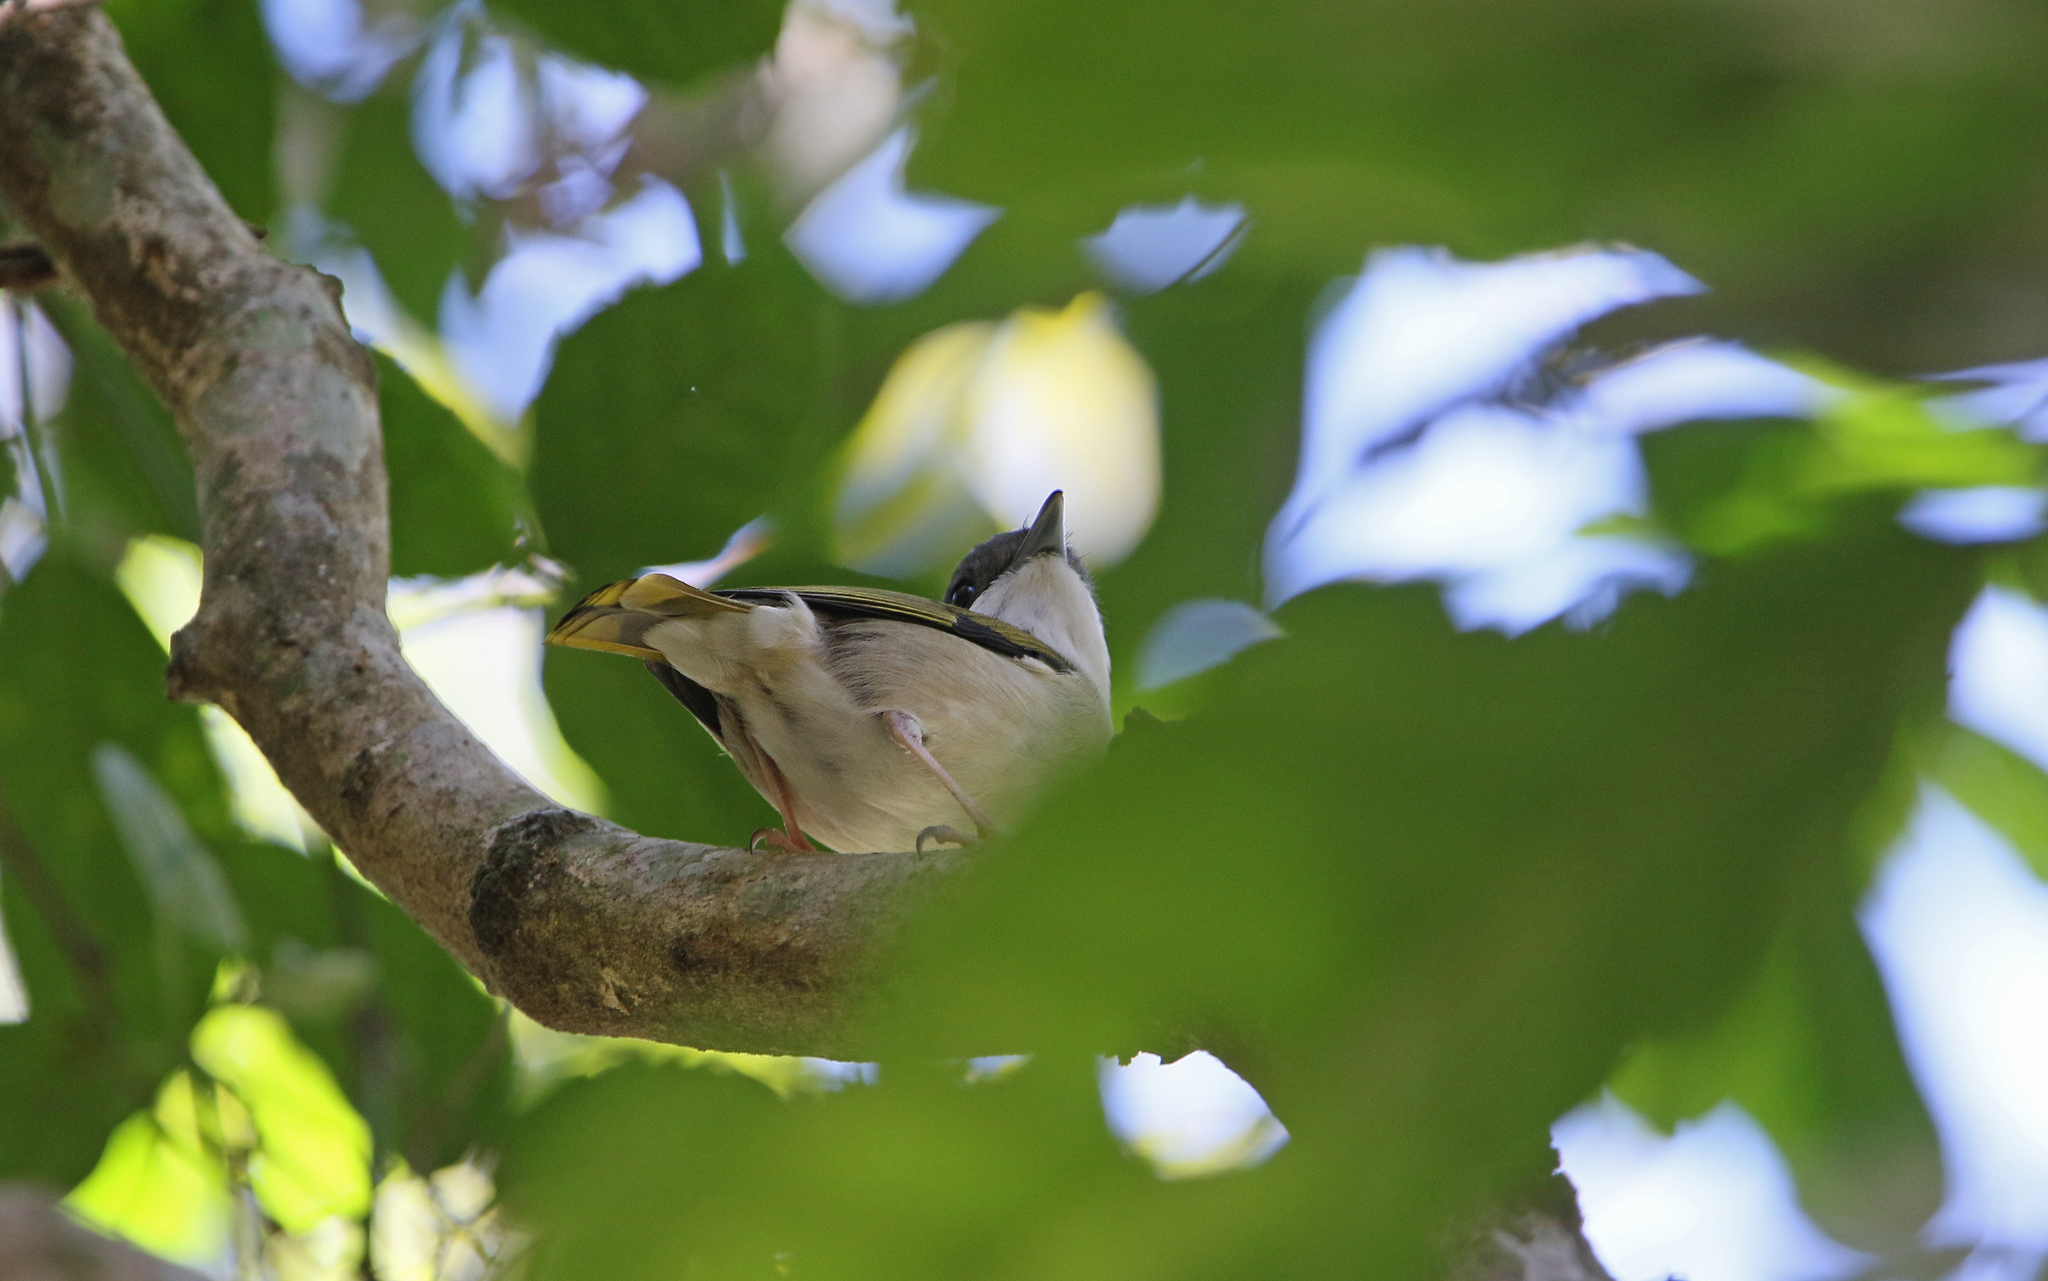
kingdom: Animalia
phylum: Chordata
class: Aves
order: Passeriformes
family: Vireonidae
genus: Pteruthius
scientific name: Pteruthius aeralatus
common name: Blyth's shrike-babbler
